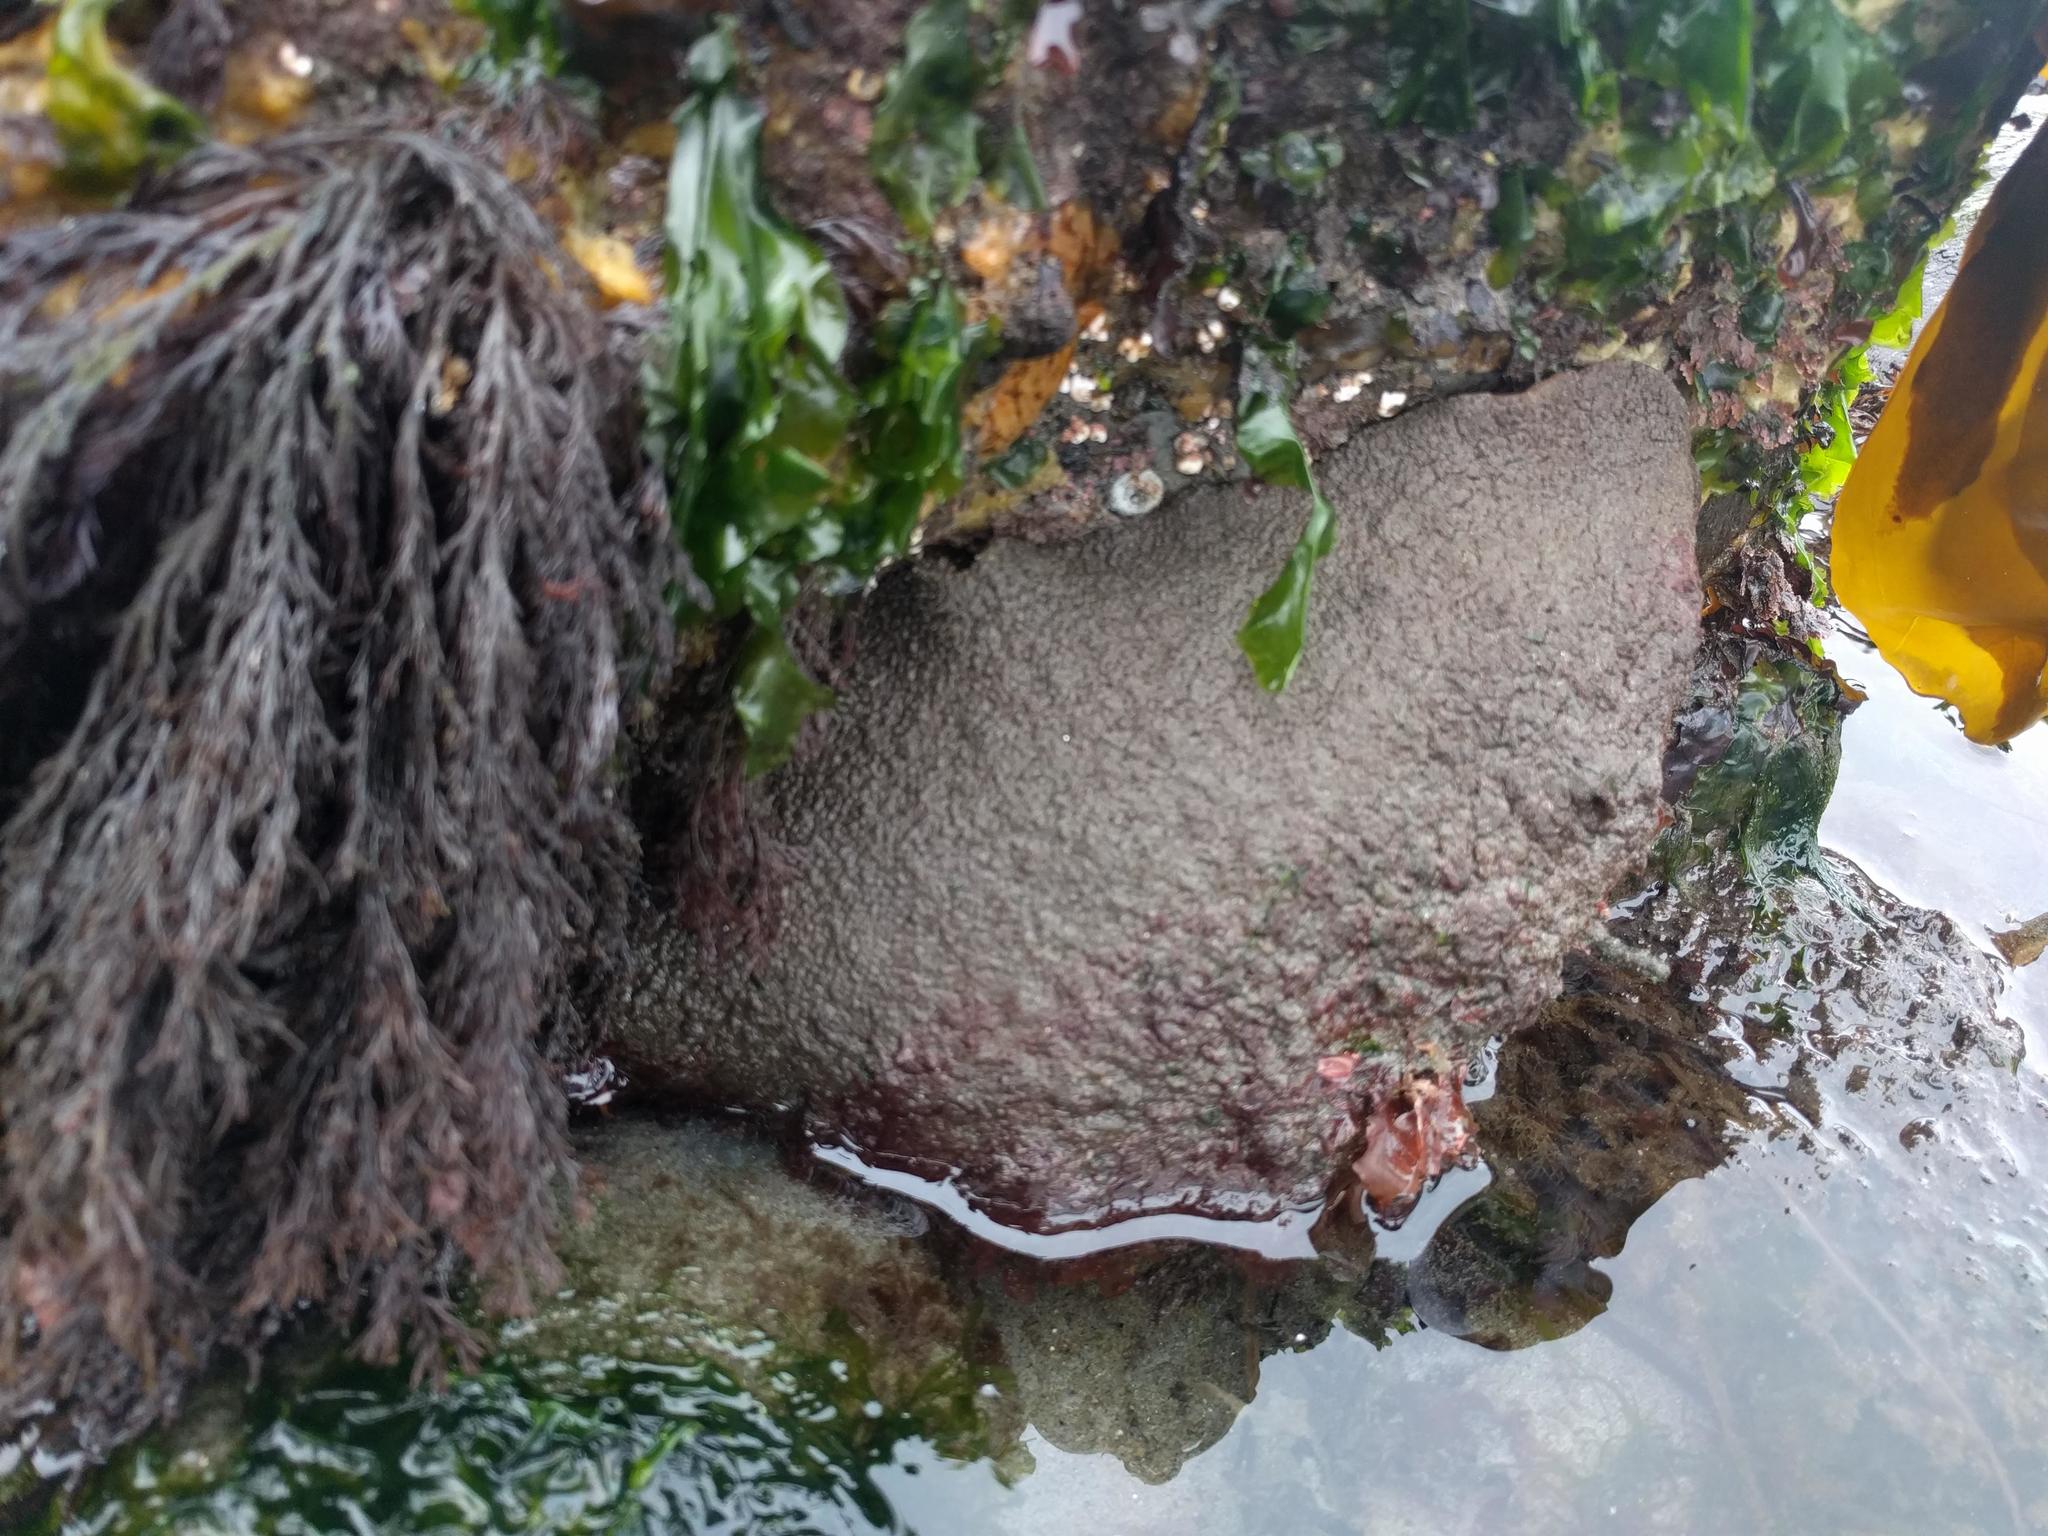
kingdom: Animalia
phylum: Mollusca
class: Polyplacophora
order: Chitonida
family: Acanthochitonidae
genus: Cryptochiton
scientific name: Cryptochiton stelleri
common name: Giant pacific chiton
